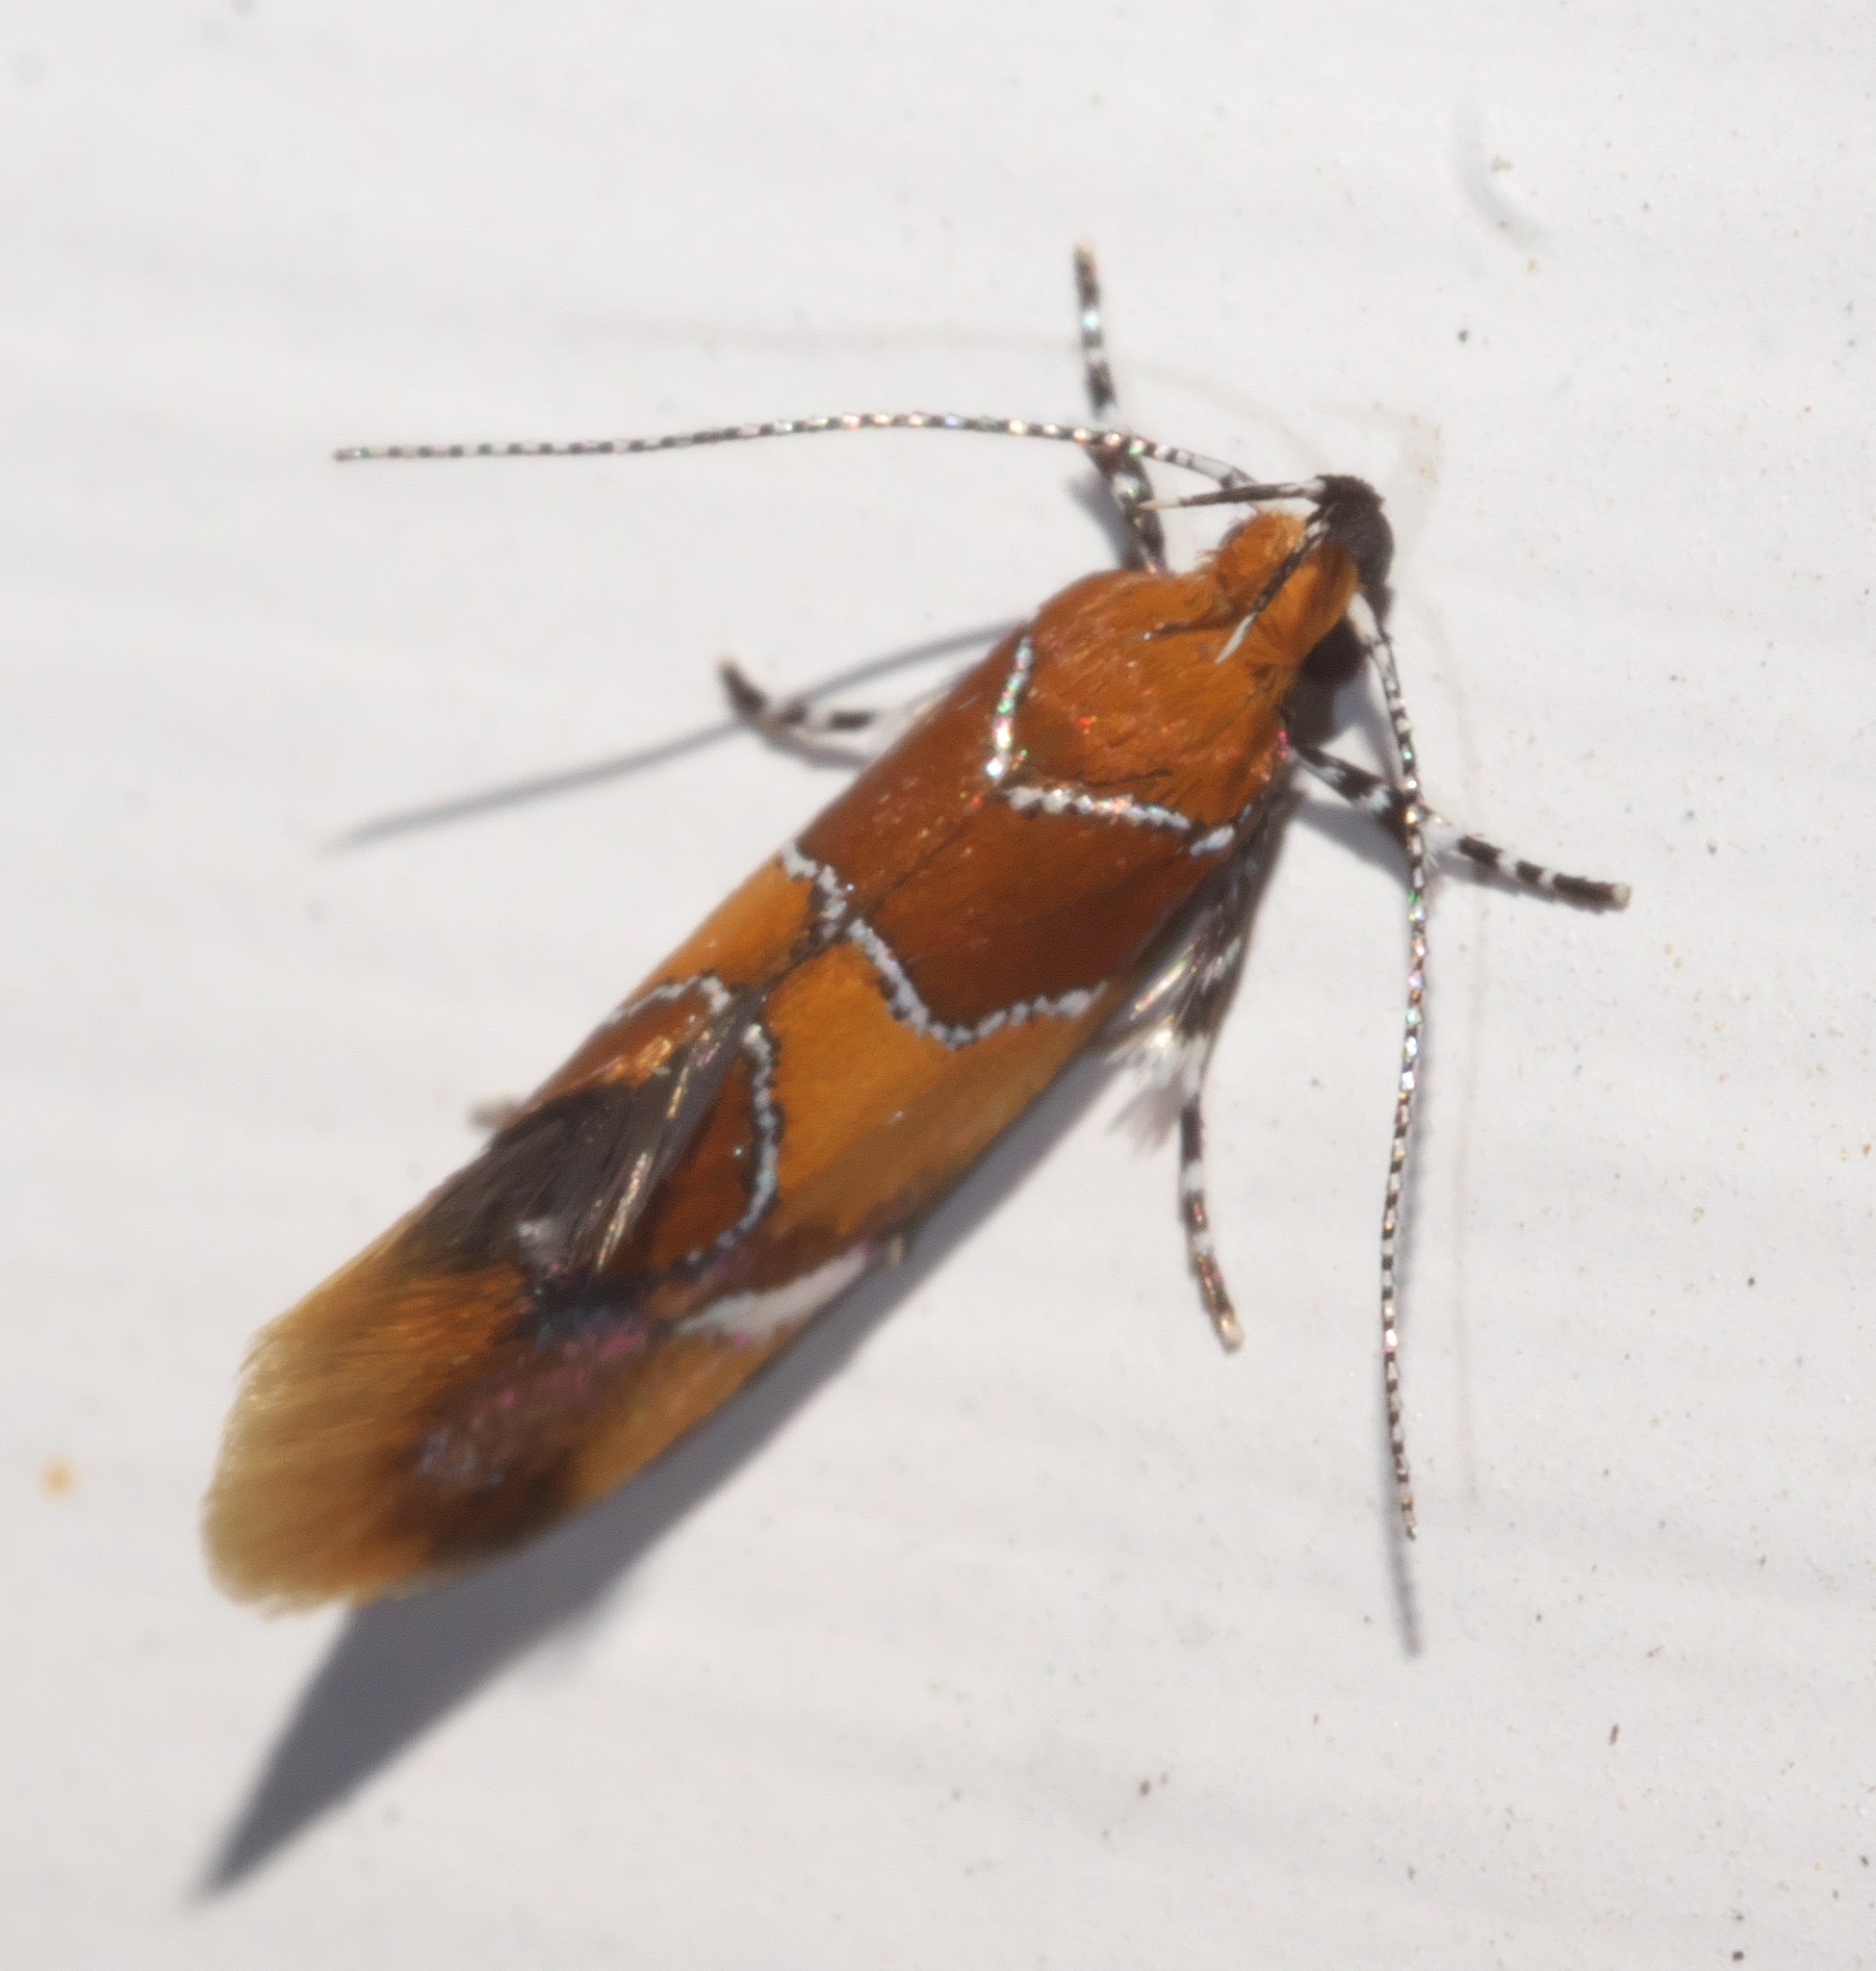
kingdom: Animalia
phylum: Arthropoda
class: Insecta
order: Lepidoptera
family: Oecophoridae
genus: Callima
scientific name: Callima argenticinctella
